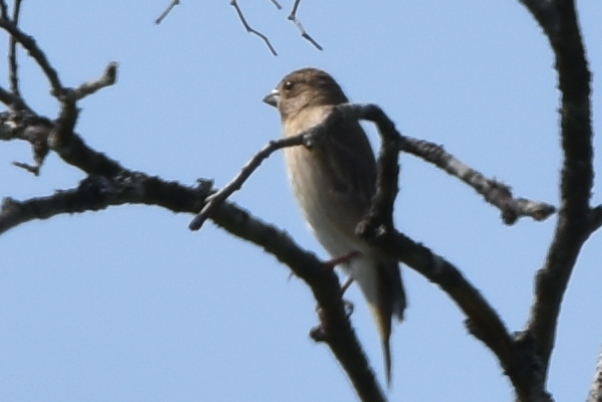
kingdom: Animalia
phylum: Chordata
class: Aves
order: Passeriformes
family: Fringillidae
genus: Carpodacus
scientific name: Carpodacus erythrinus
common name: Common rosefinch
